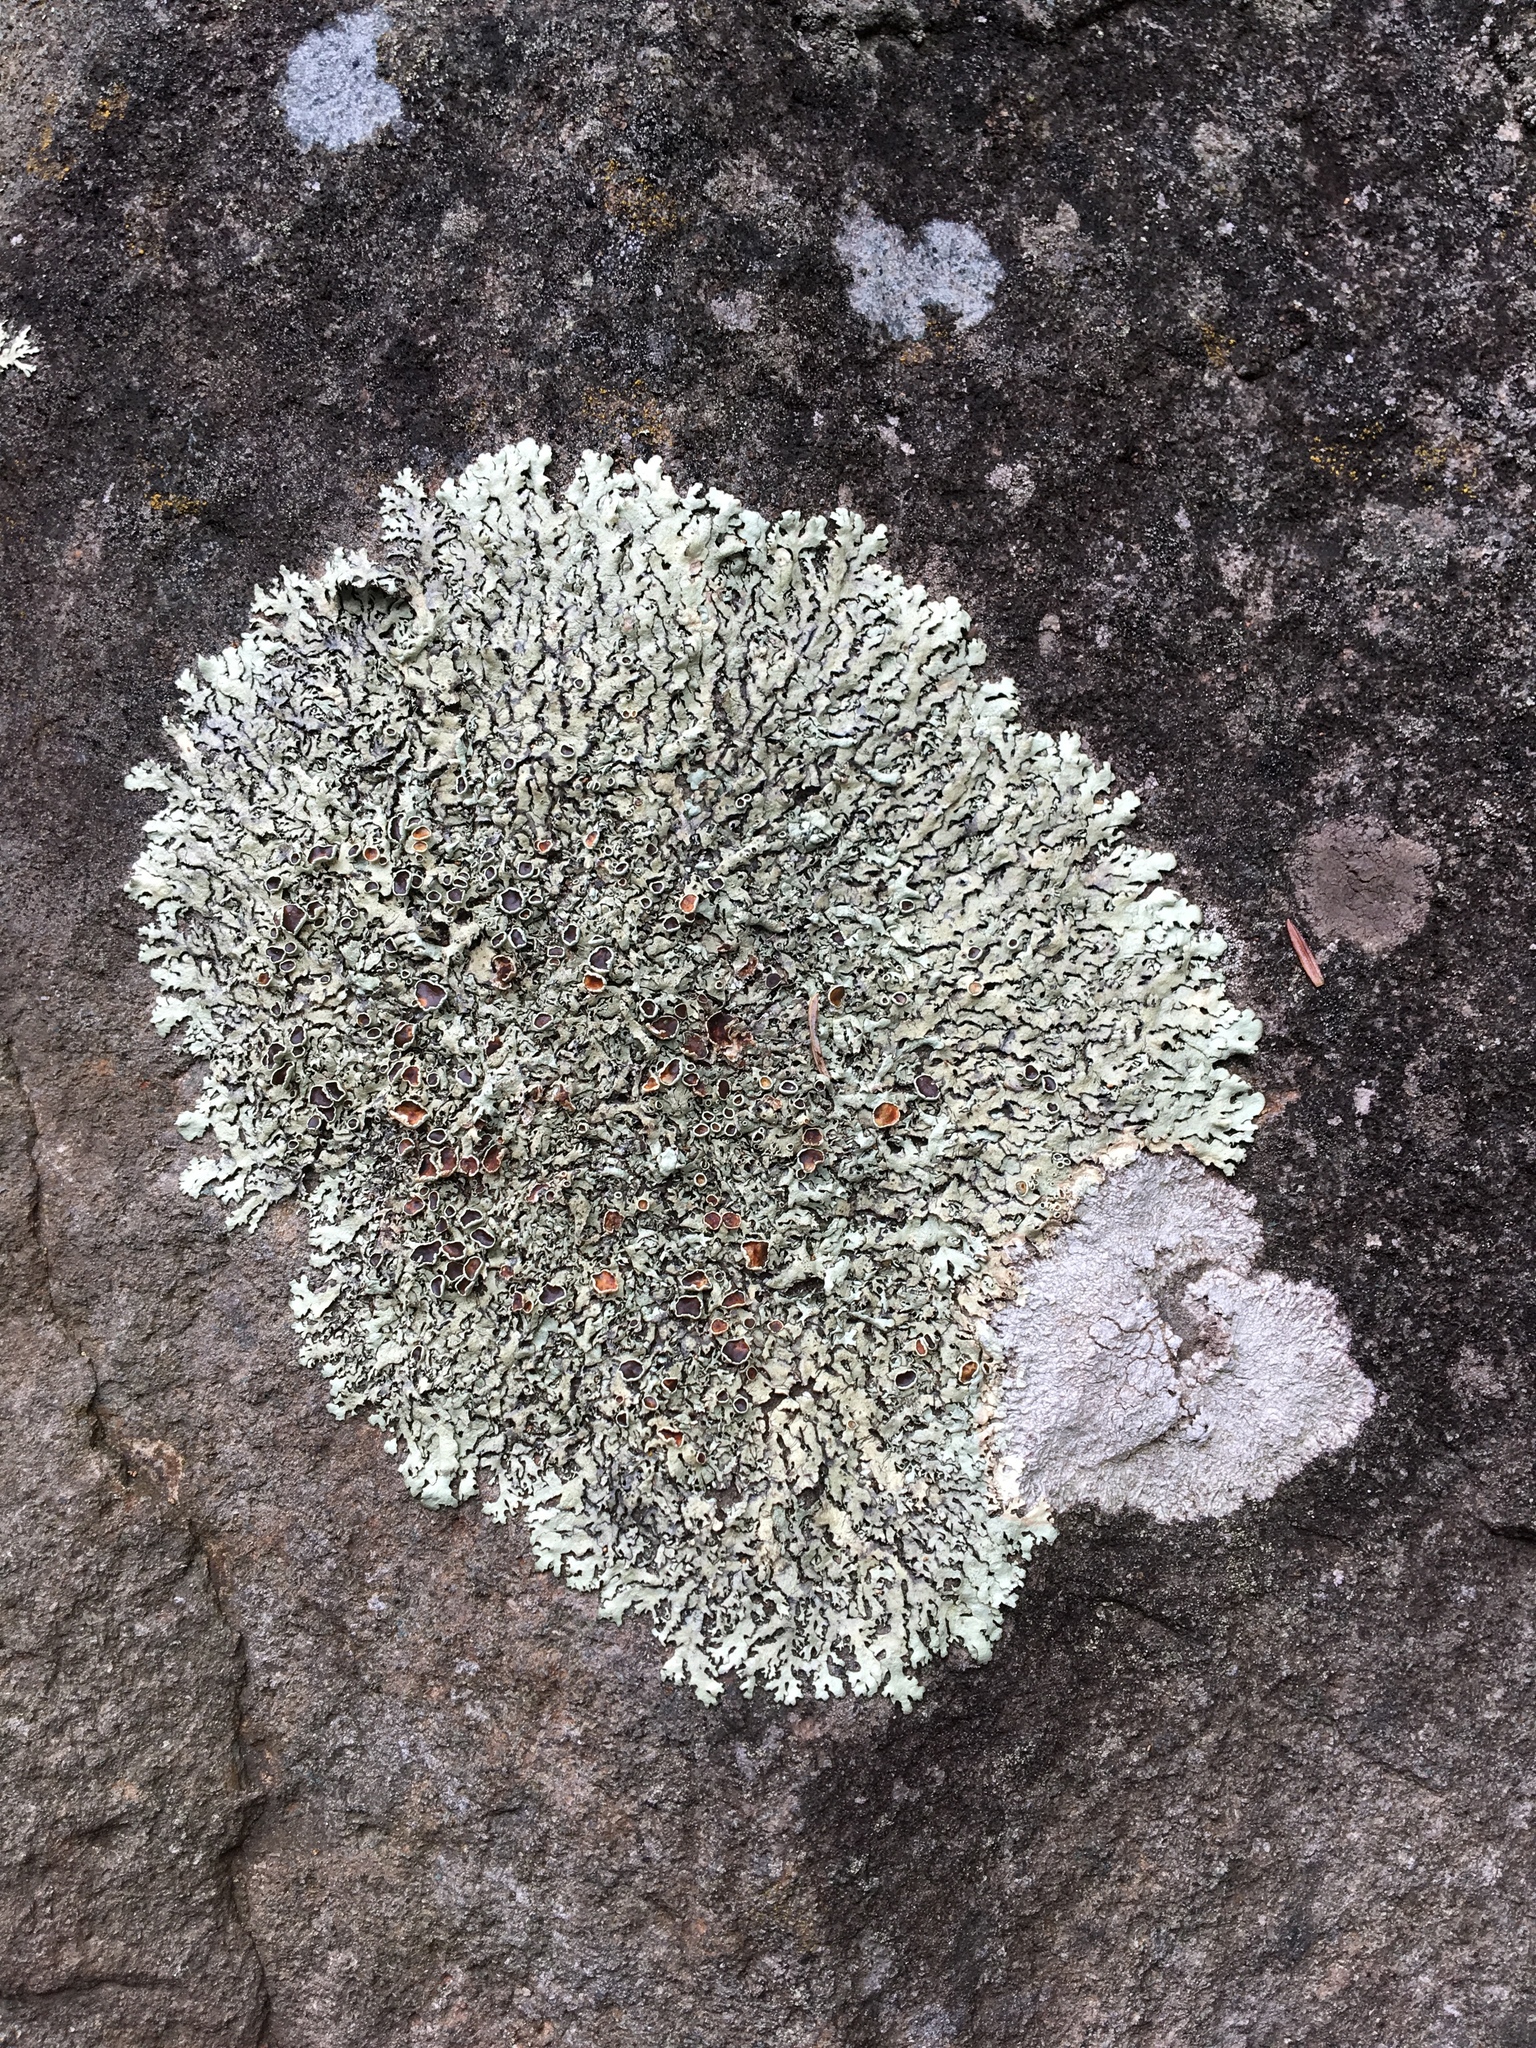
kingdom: Fungi
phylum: Ascomycota
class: Lecanoromycetes
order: Lecanorales
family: Parmeliaceae
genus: Parmelia
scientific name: Parmelia squarrosa
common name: Bottle brush shield lichen
